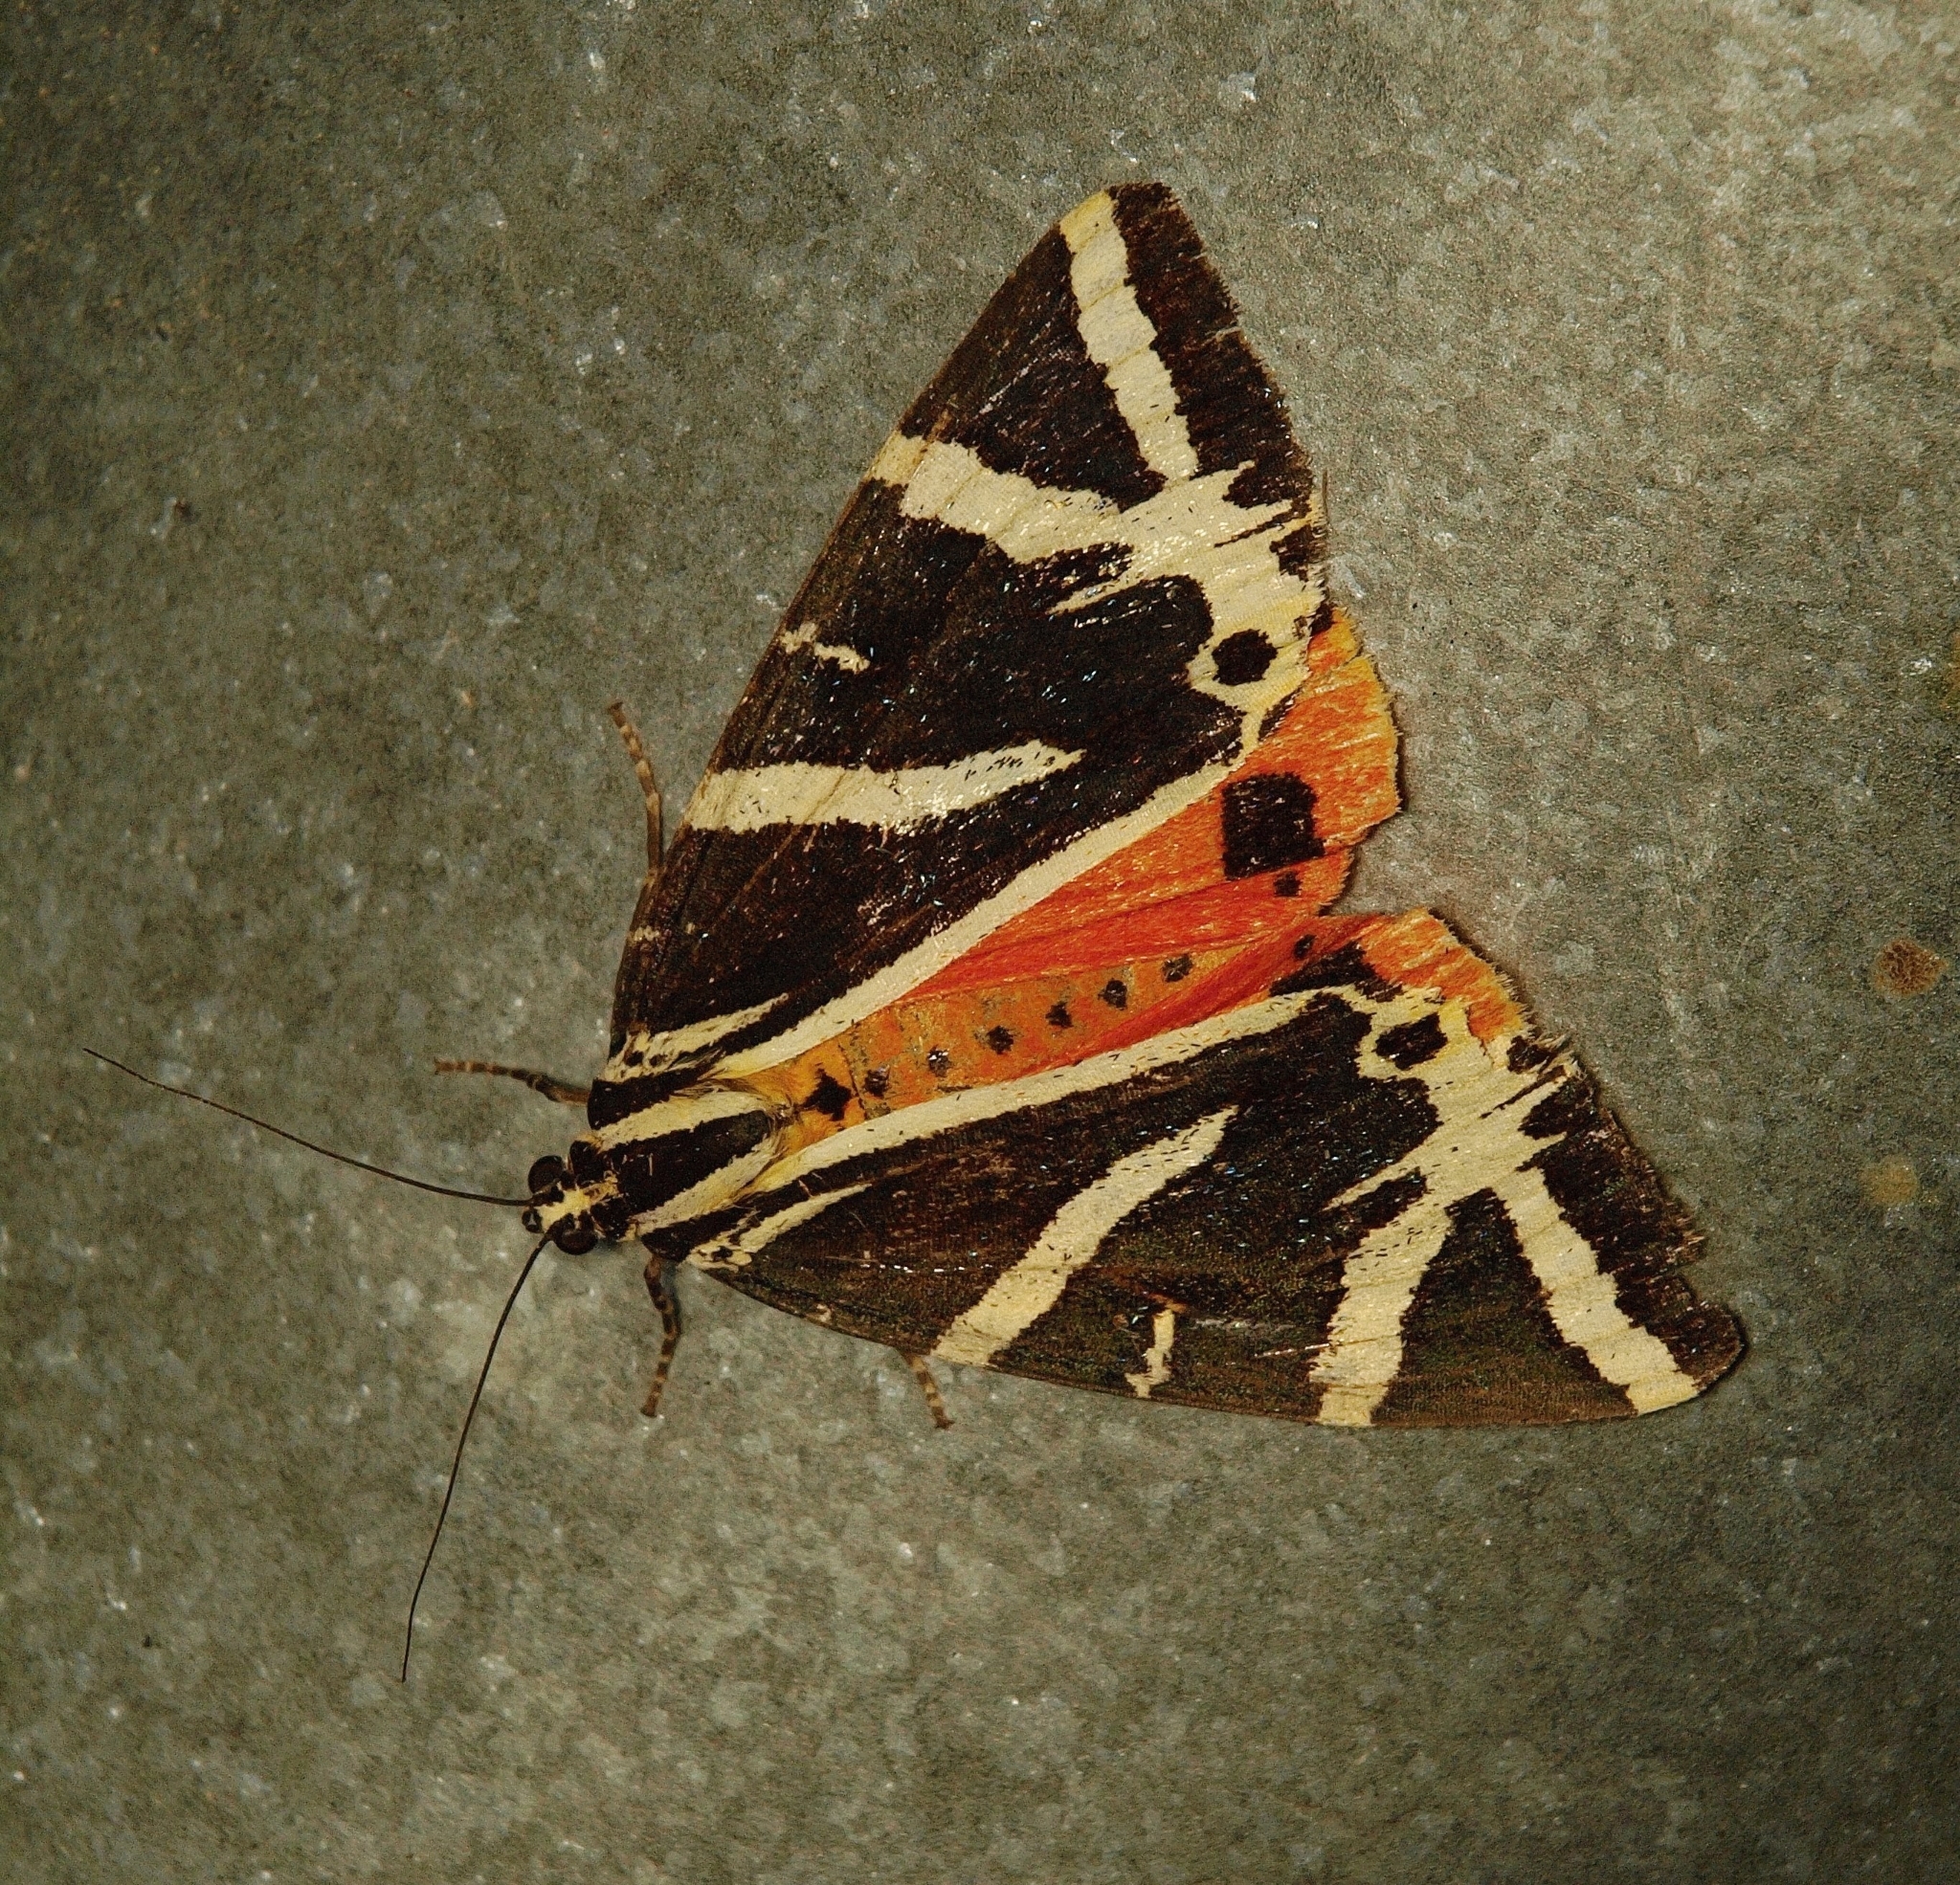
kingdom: Animalia
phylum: Arthropoda
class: Insecta
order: Lepidoptera
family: Erebidae
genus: Euplagia
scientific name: Euplagia quadripunctaria
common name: Jersey tiger
